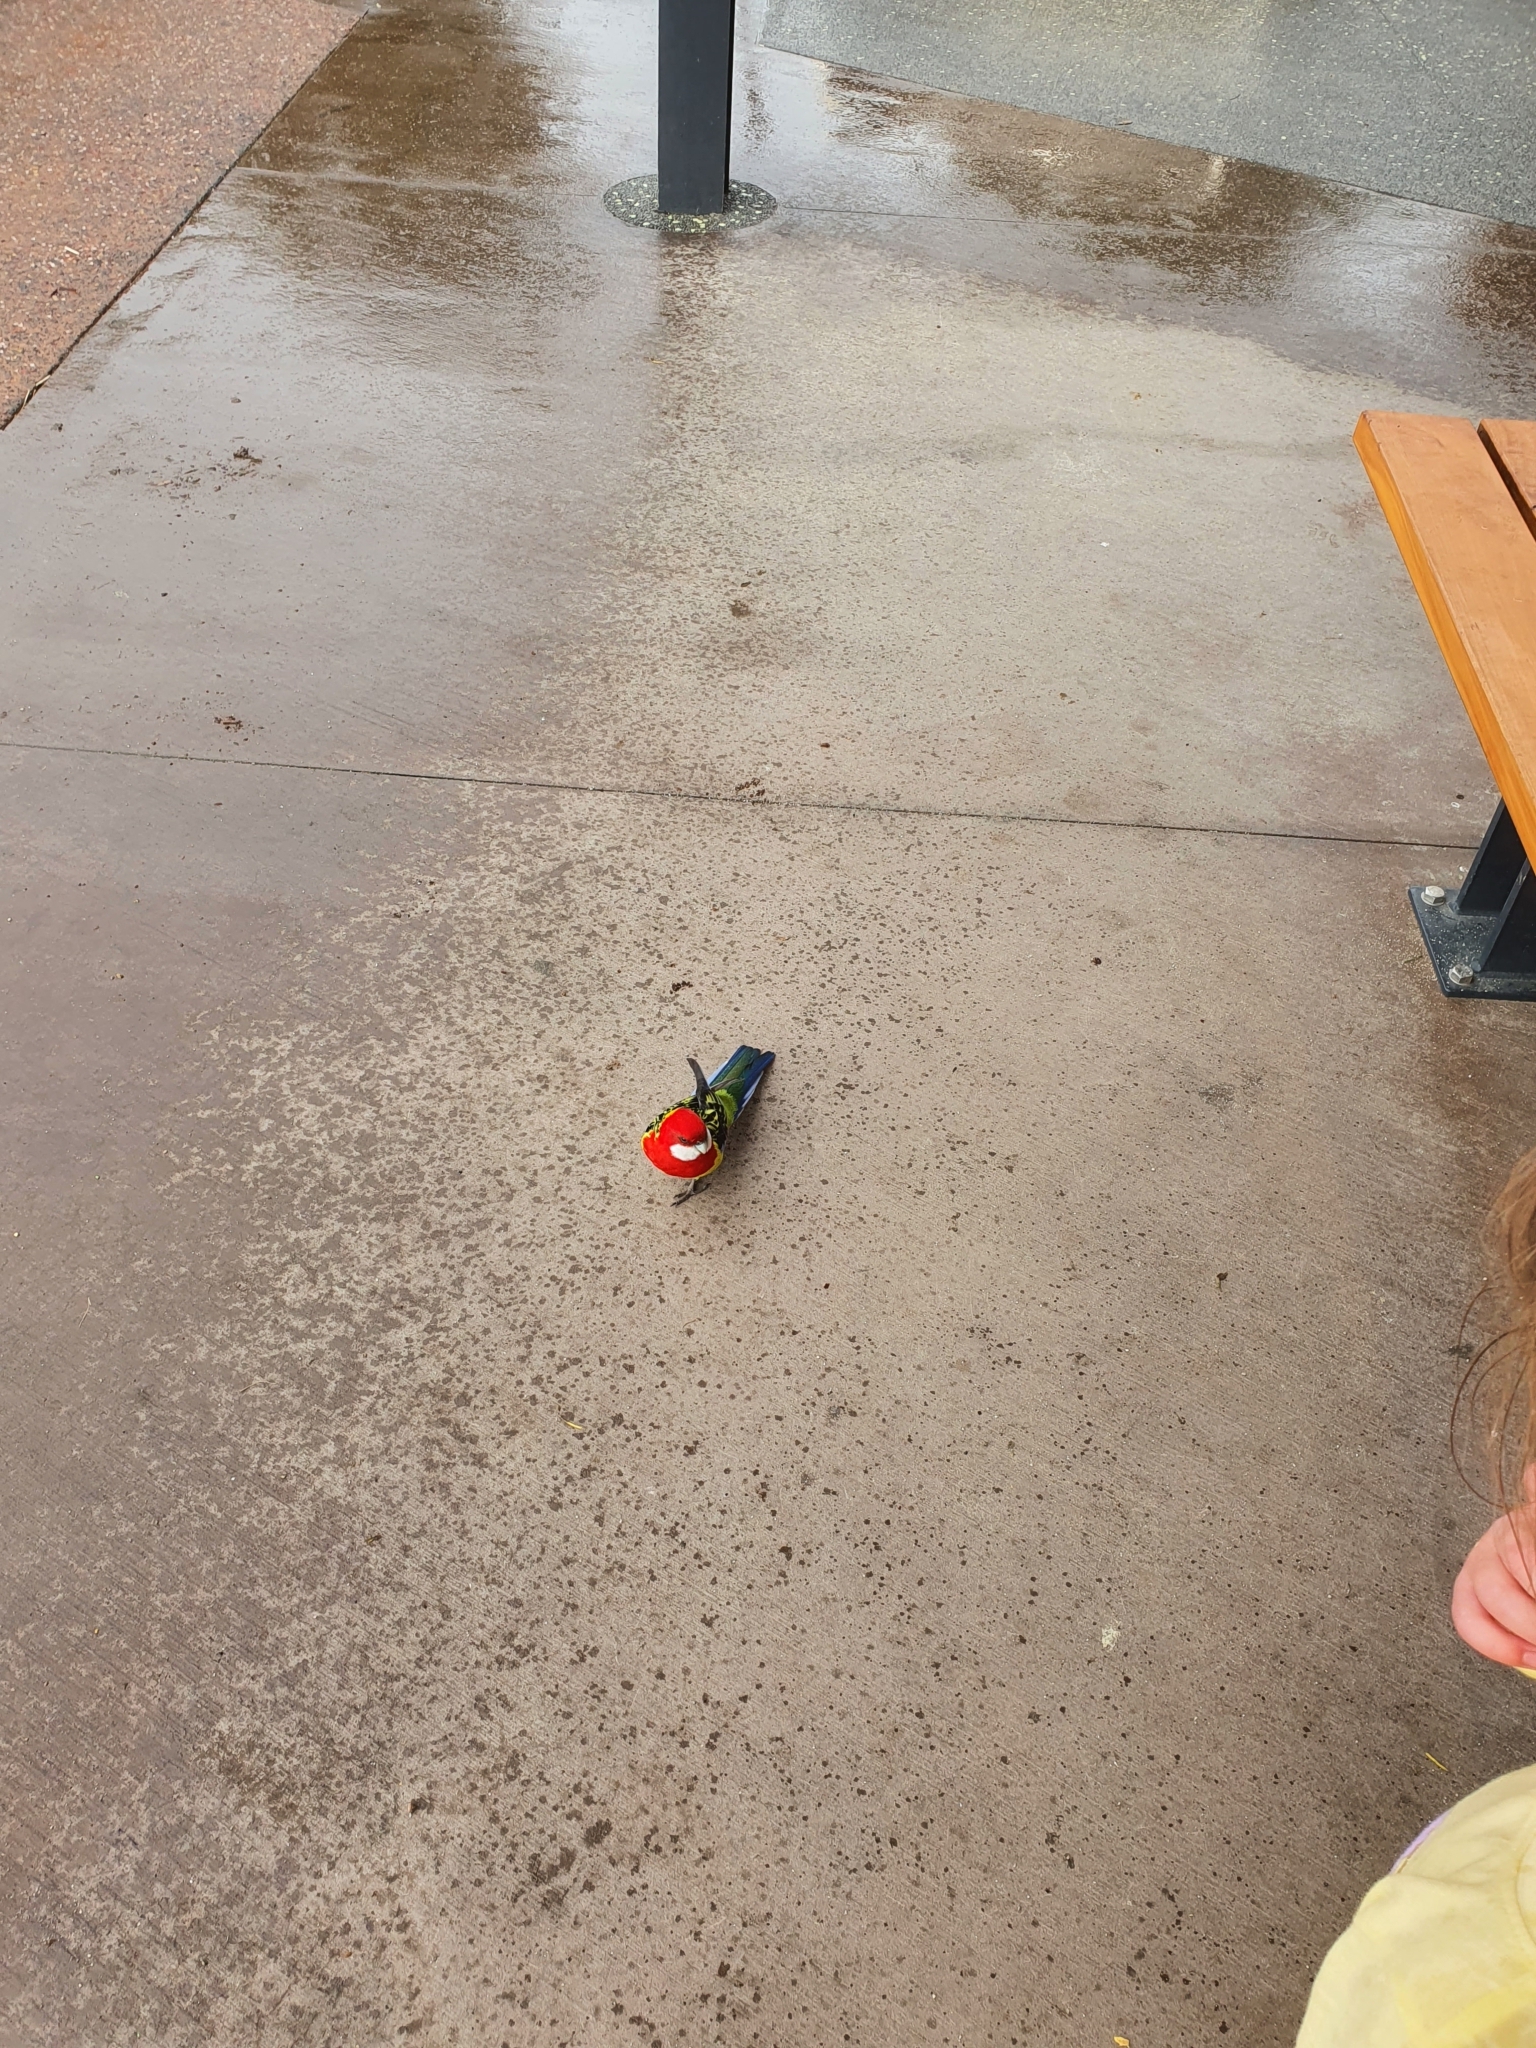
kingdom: Animalia
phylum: Chordata
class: Aves
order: Psittaciformes
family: Psittacidae
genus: Platycercus
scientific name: Platycercus eximius
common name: Eastern rosella
